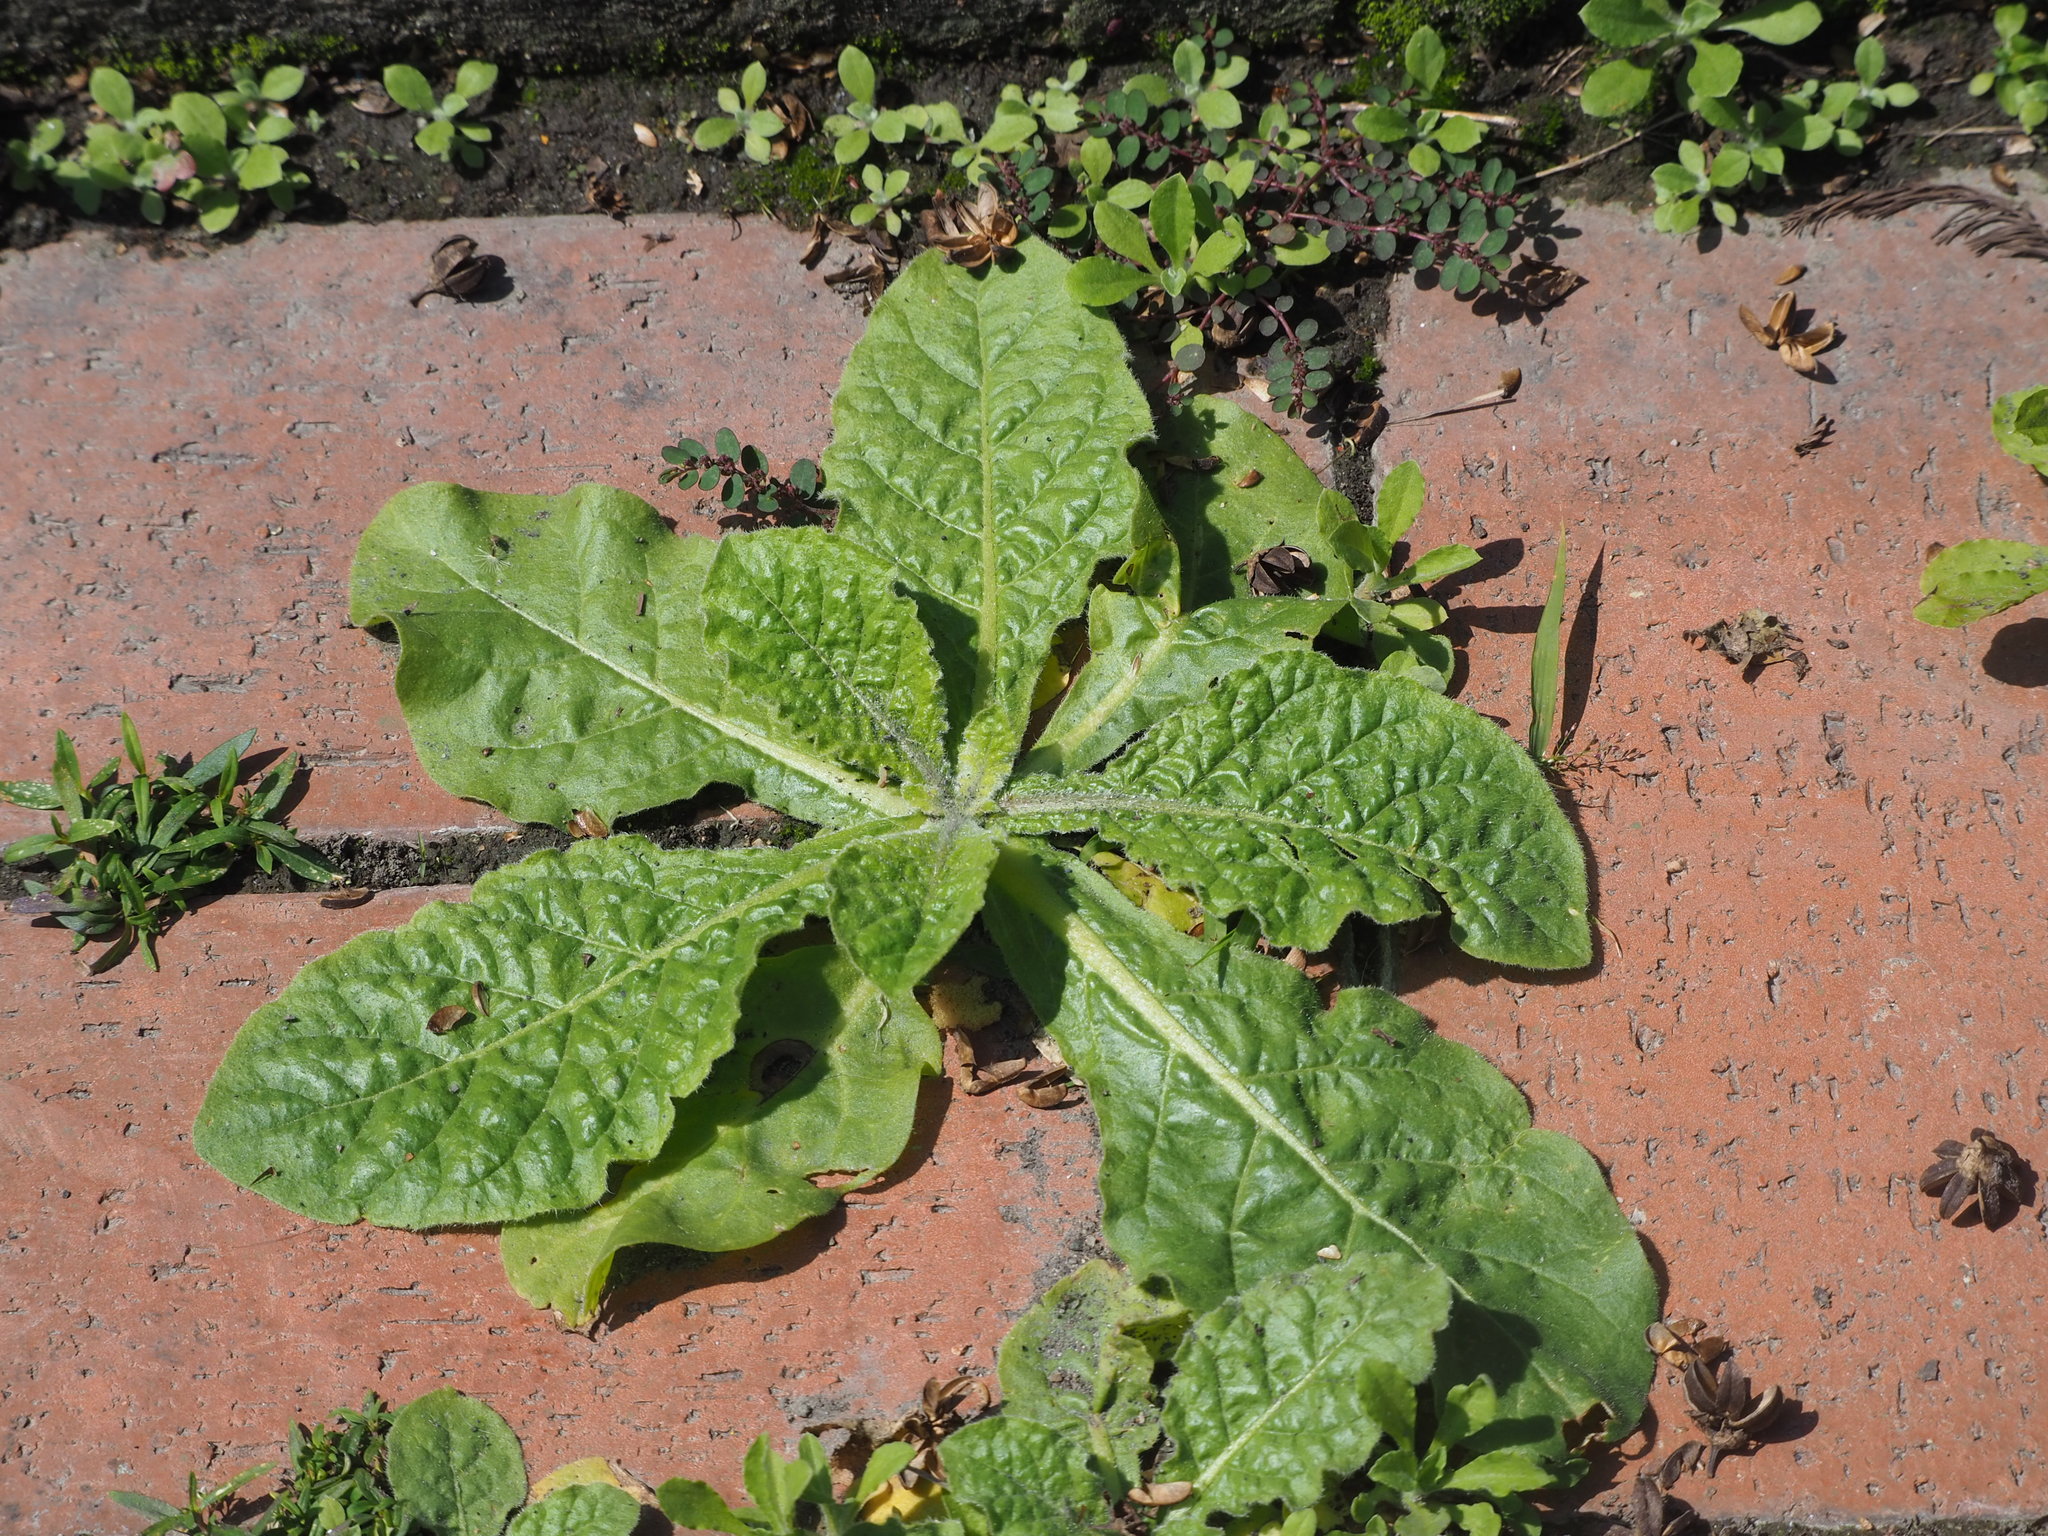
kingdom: Plantae
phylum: Tracheophyta
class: Magnoliopsida
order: Solanales
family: Solanaceae
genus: Nicotiana
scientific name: Nicotiana plumbaginifolia
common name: Tex-mex tobacco
